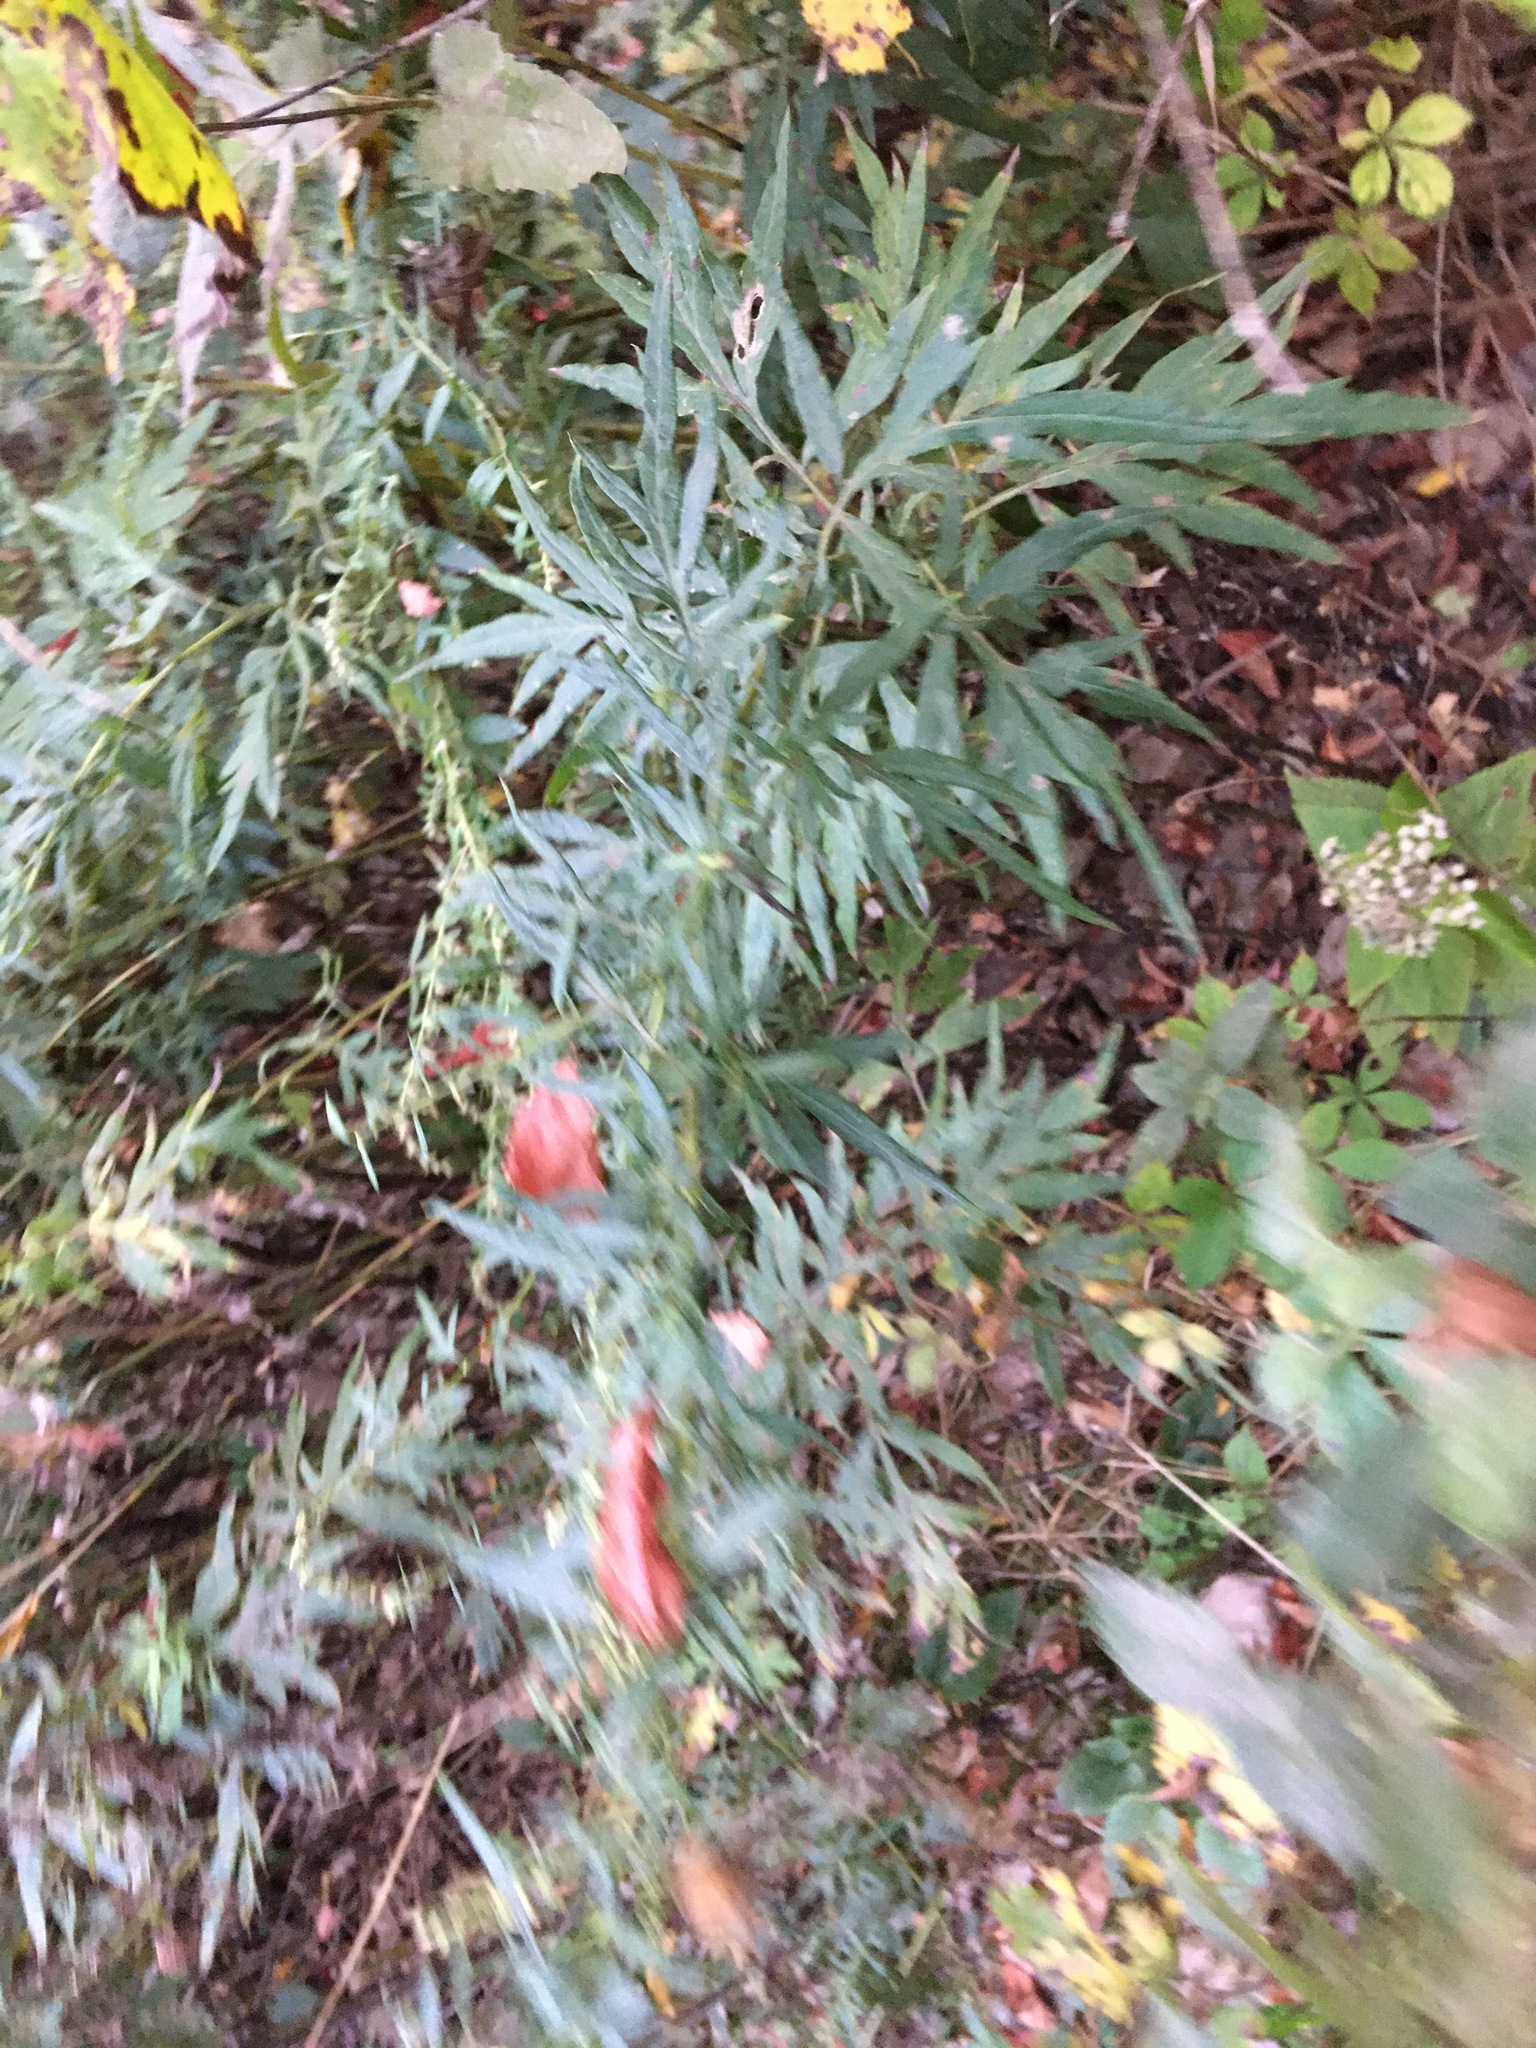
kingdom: Plantae
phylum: Tracheophyta
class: Magnoliopsida
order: Asterales
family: Asteraceae
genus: Artemisia
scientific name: Artemisia vulgaris
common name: Mugwort
